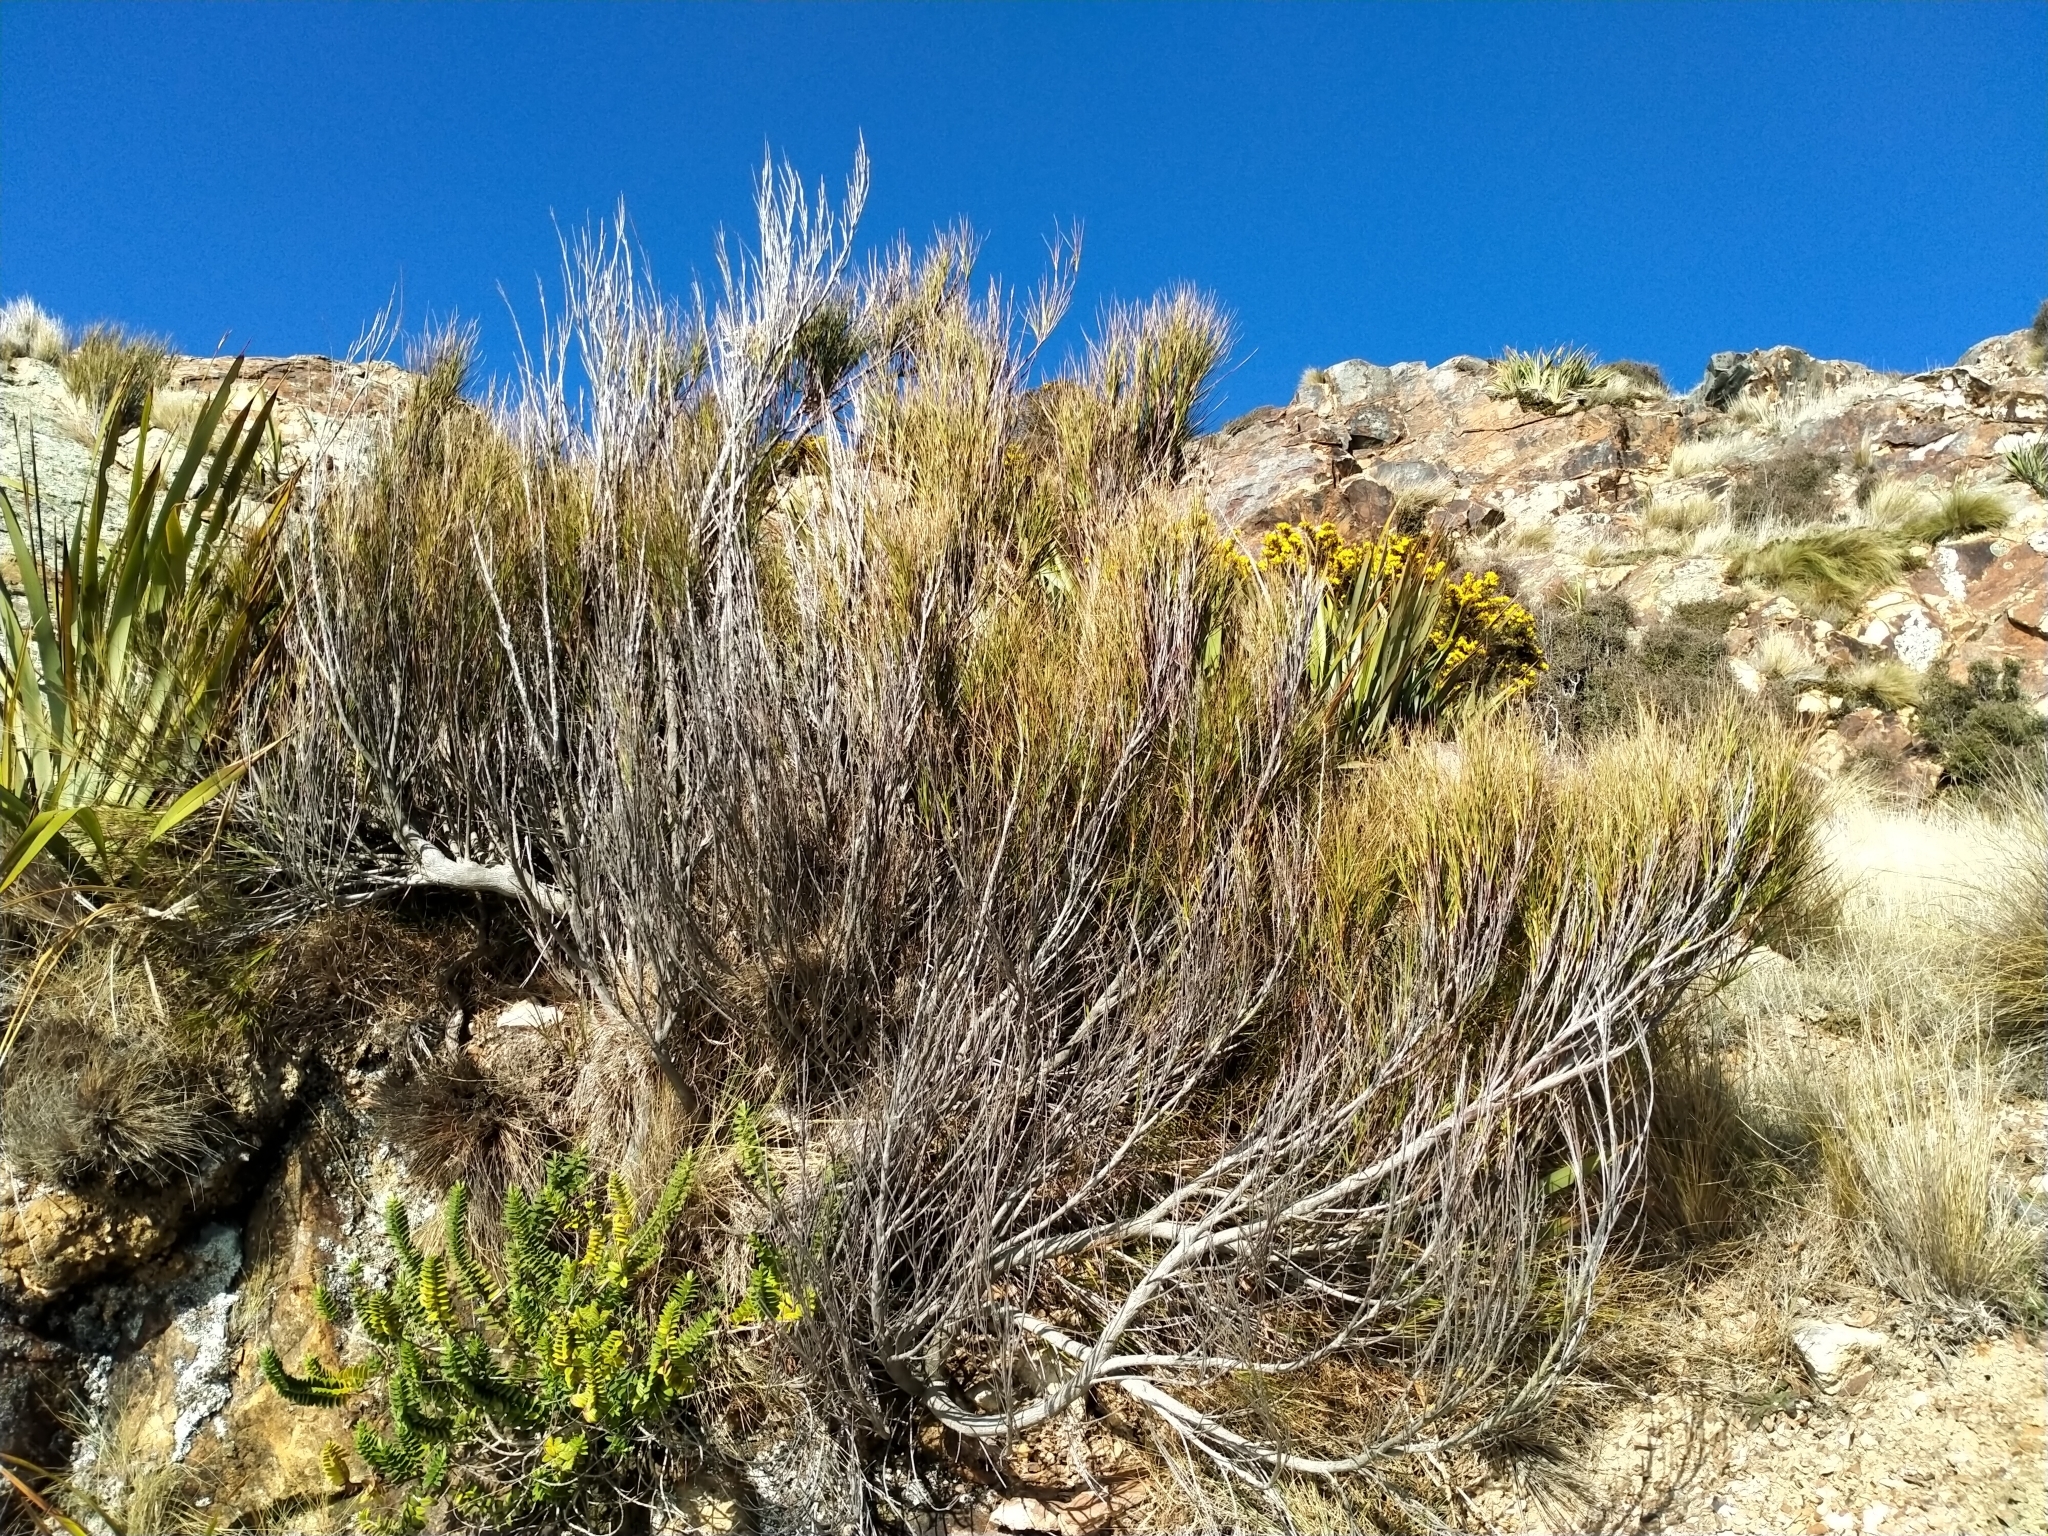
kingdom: Plantae
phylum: Tracheophyta
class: Magnoliopsida
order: Ericales
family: Ericaceae
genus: Dracophyllum
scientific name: Dracophyllum longifolium
